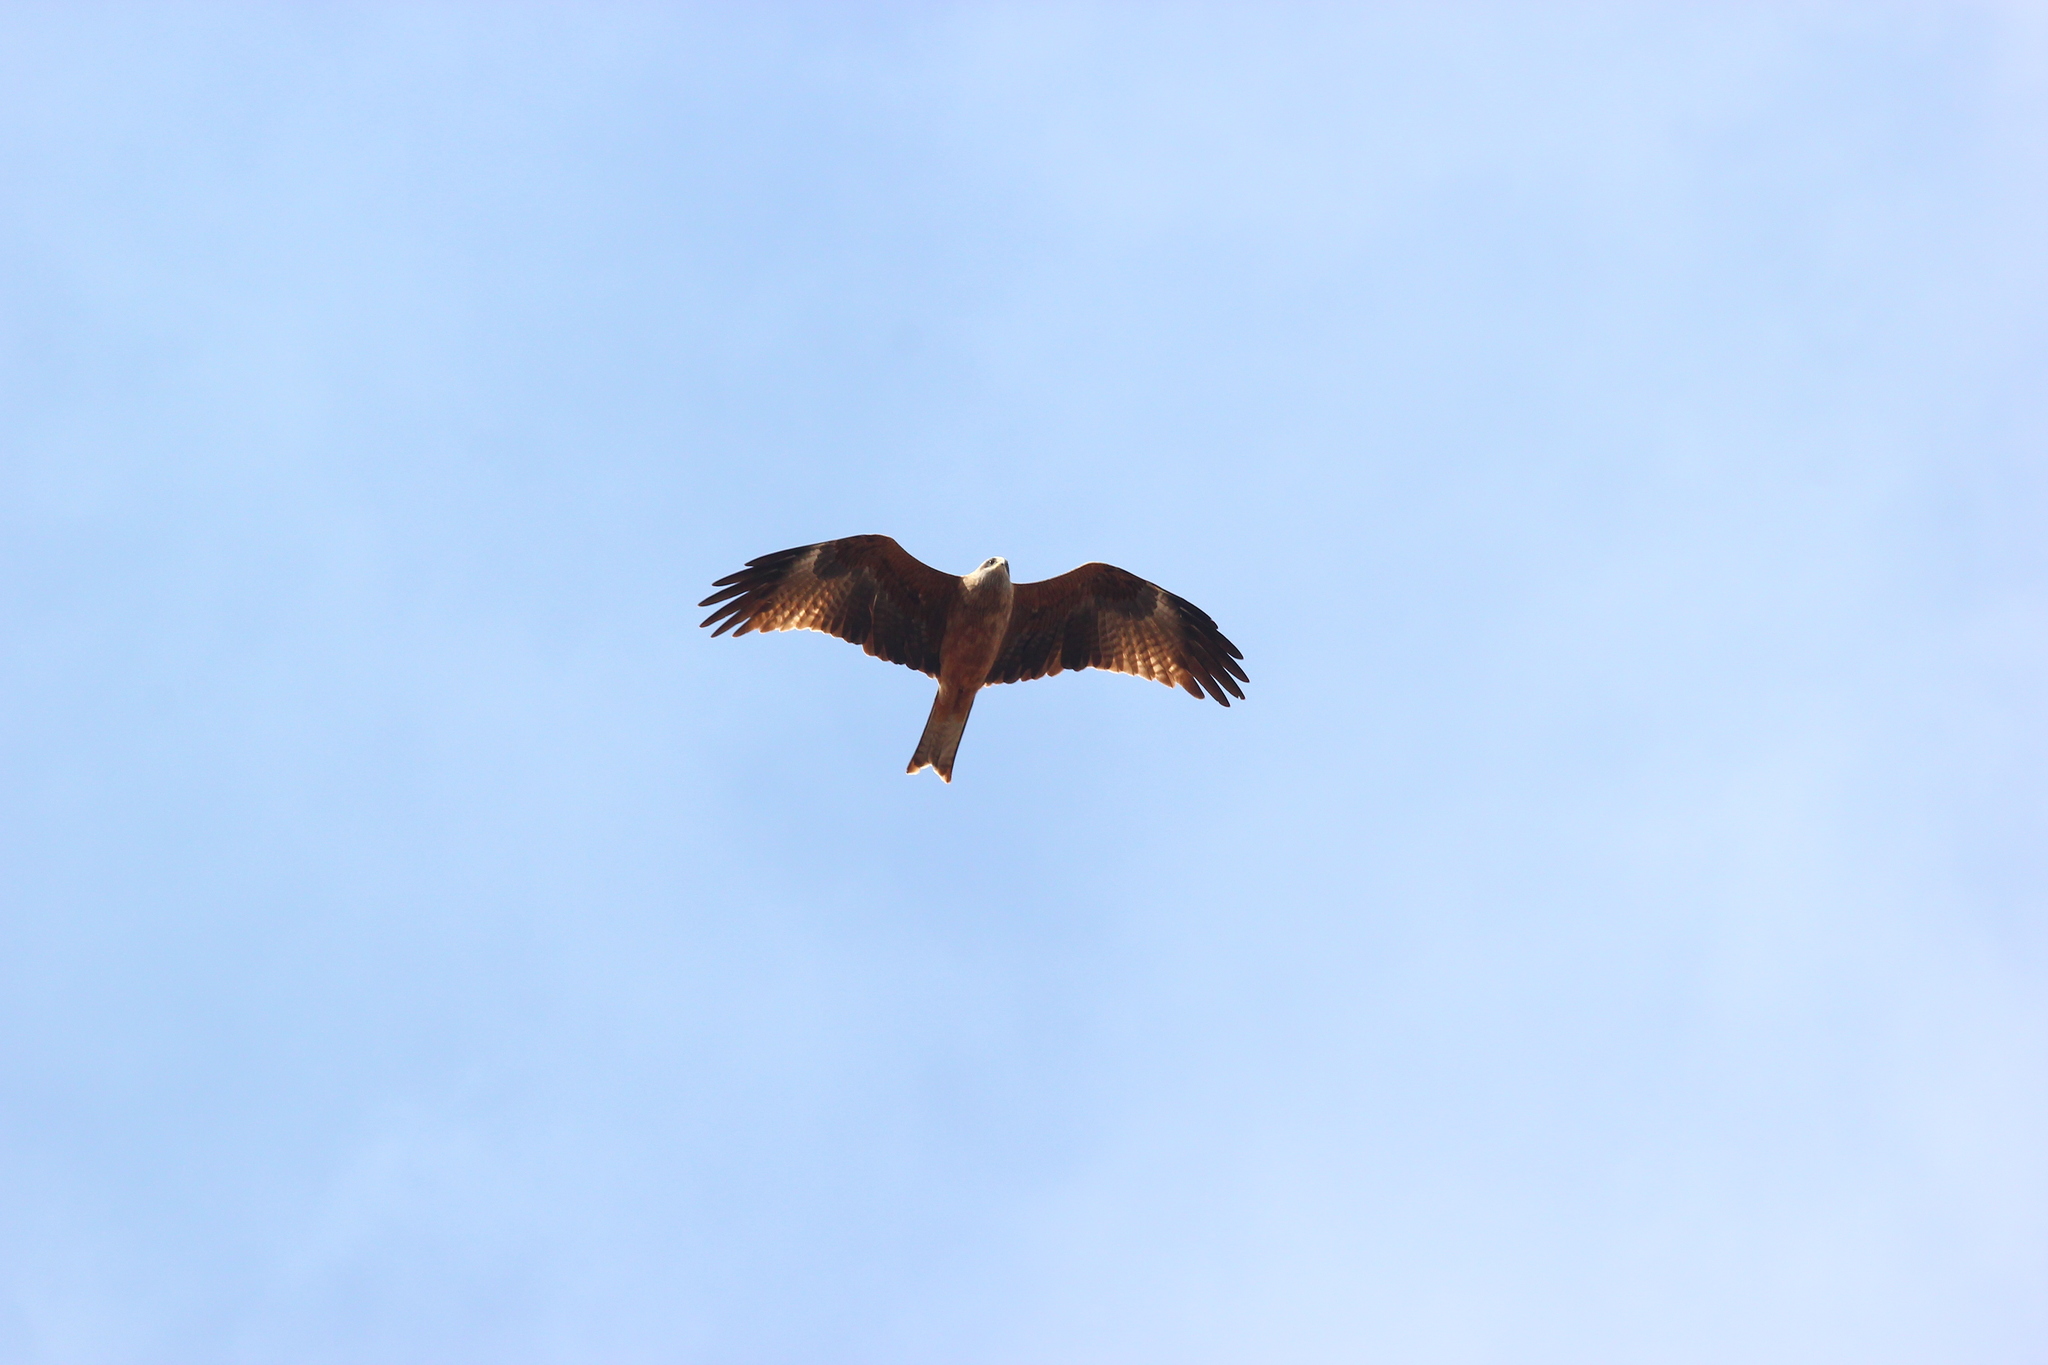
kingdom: Animalia
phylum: Chordata
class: Aves
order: Accipitriformes
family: Accipitridae
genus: Milvus
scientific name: Milvus migrans
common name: Black kite
